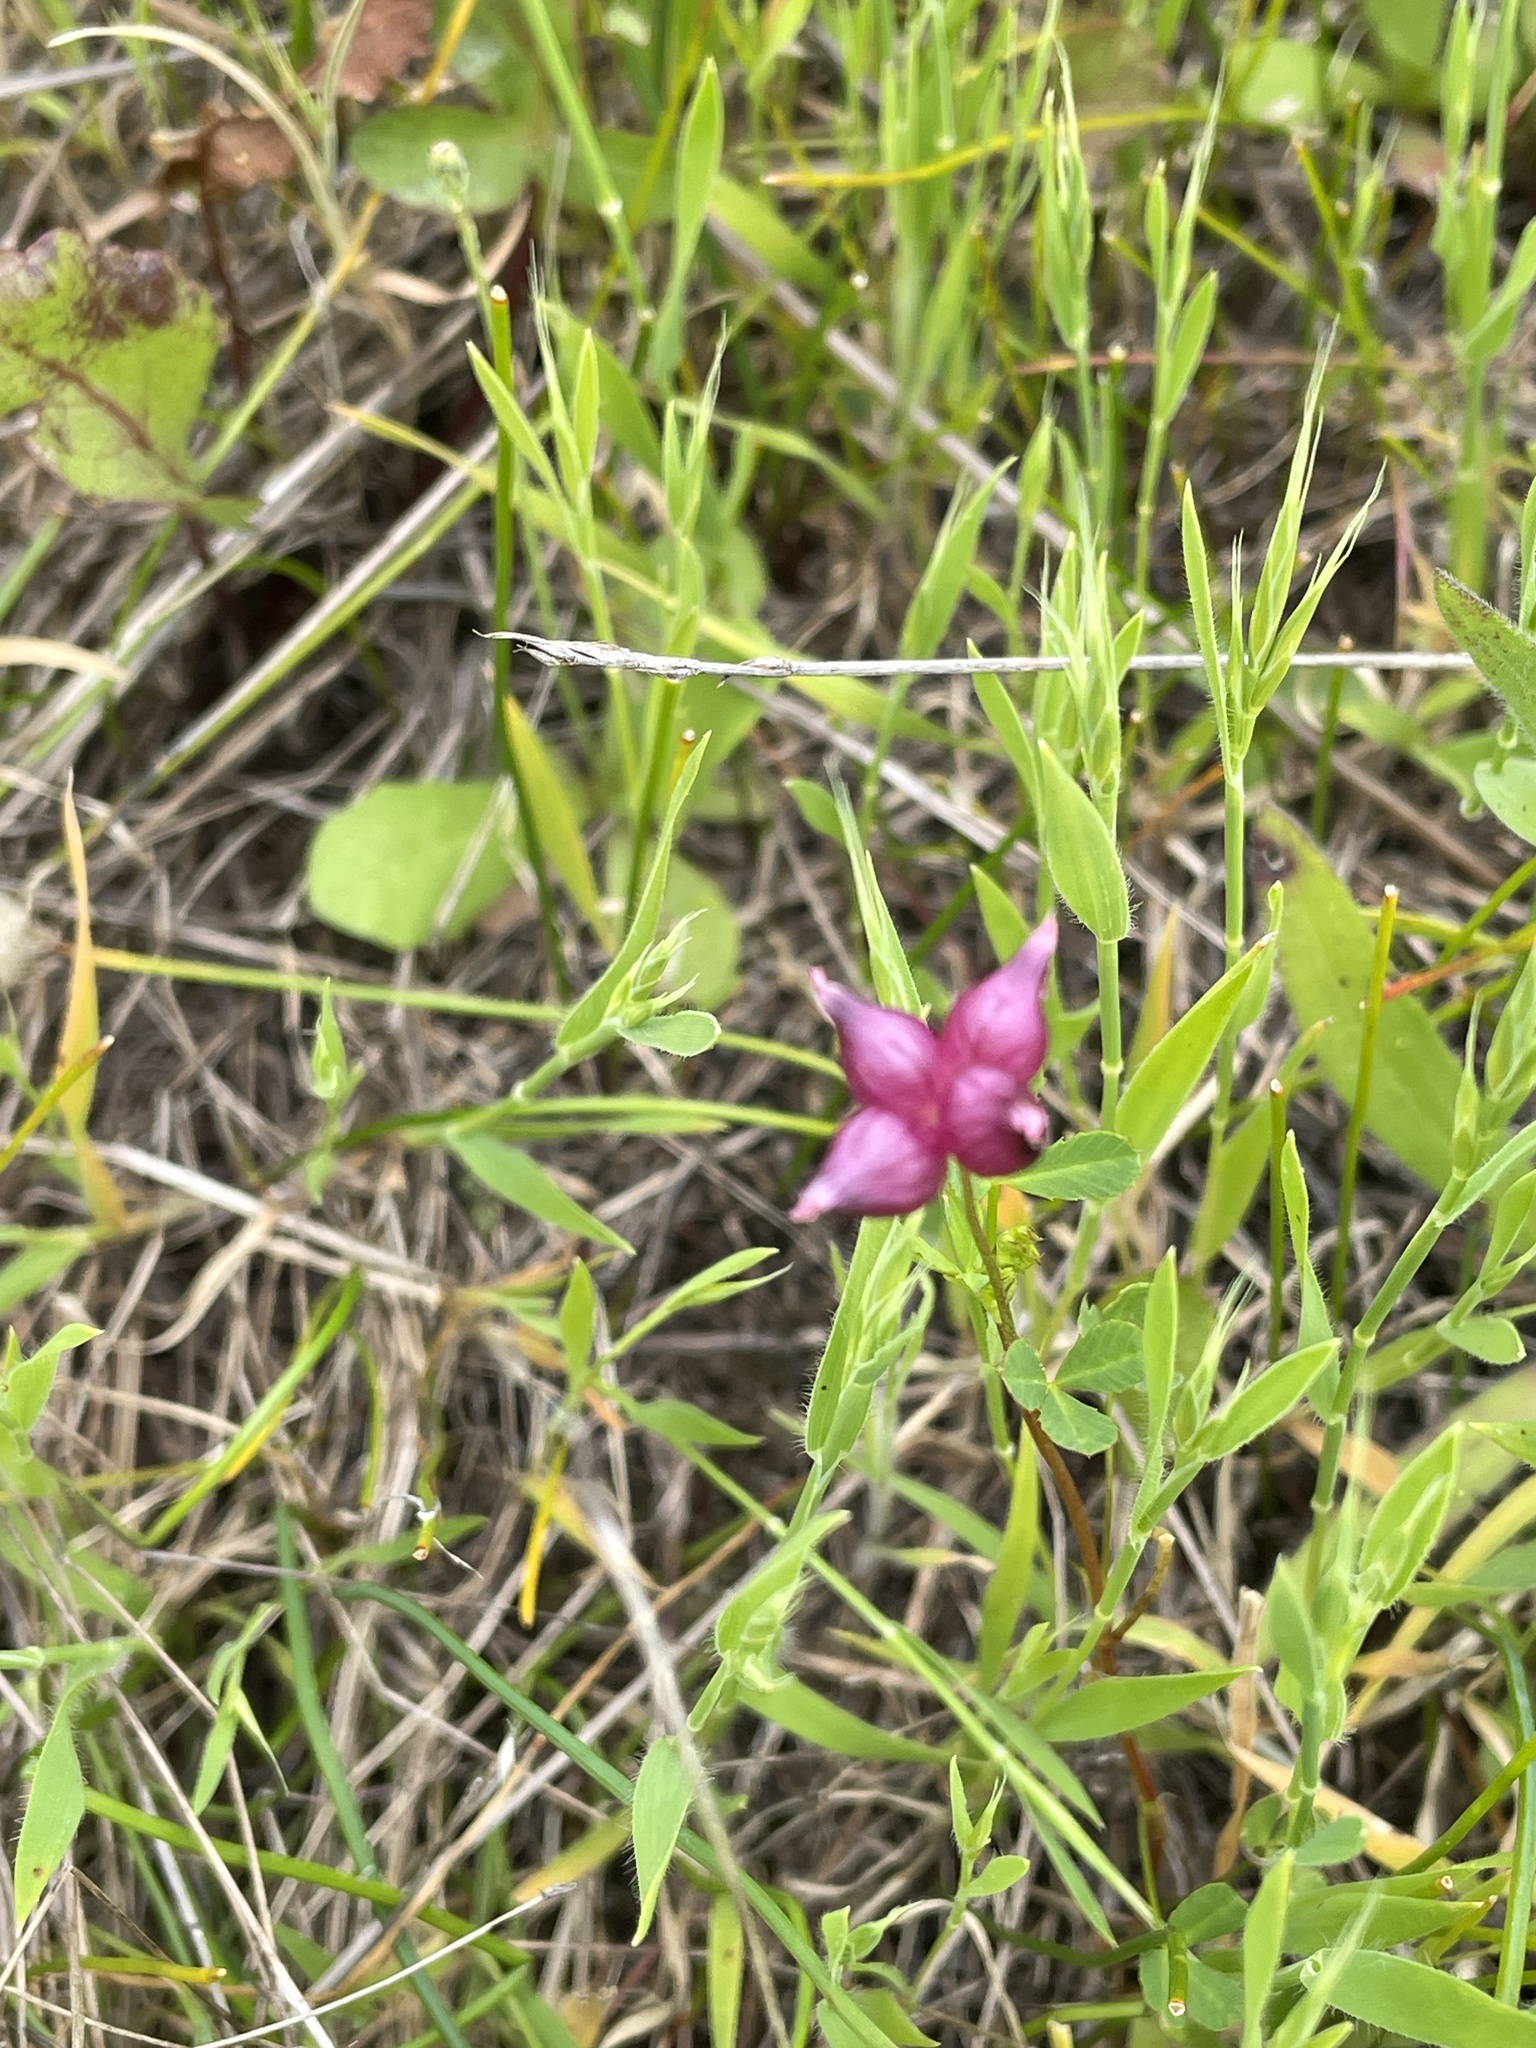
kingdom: Plantae
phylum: Tracheophyta
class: Magnoliopsida
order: Fabales
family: Fabaceae
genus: Trifolium
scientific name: Trifolium depauperatum
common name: Poverty clover
